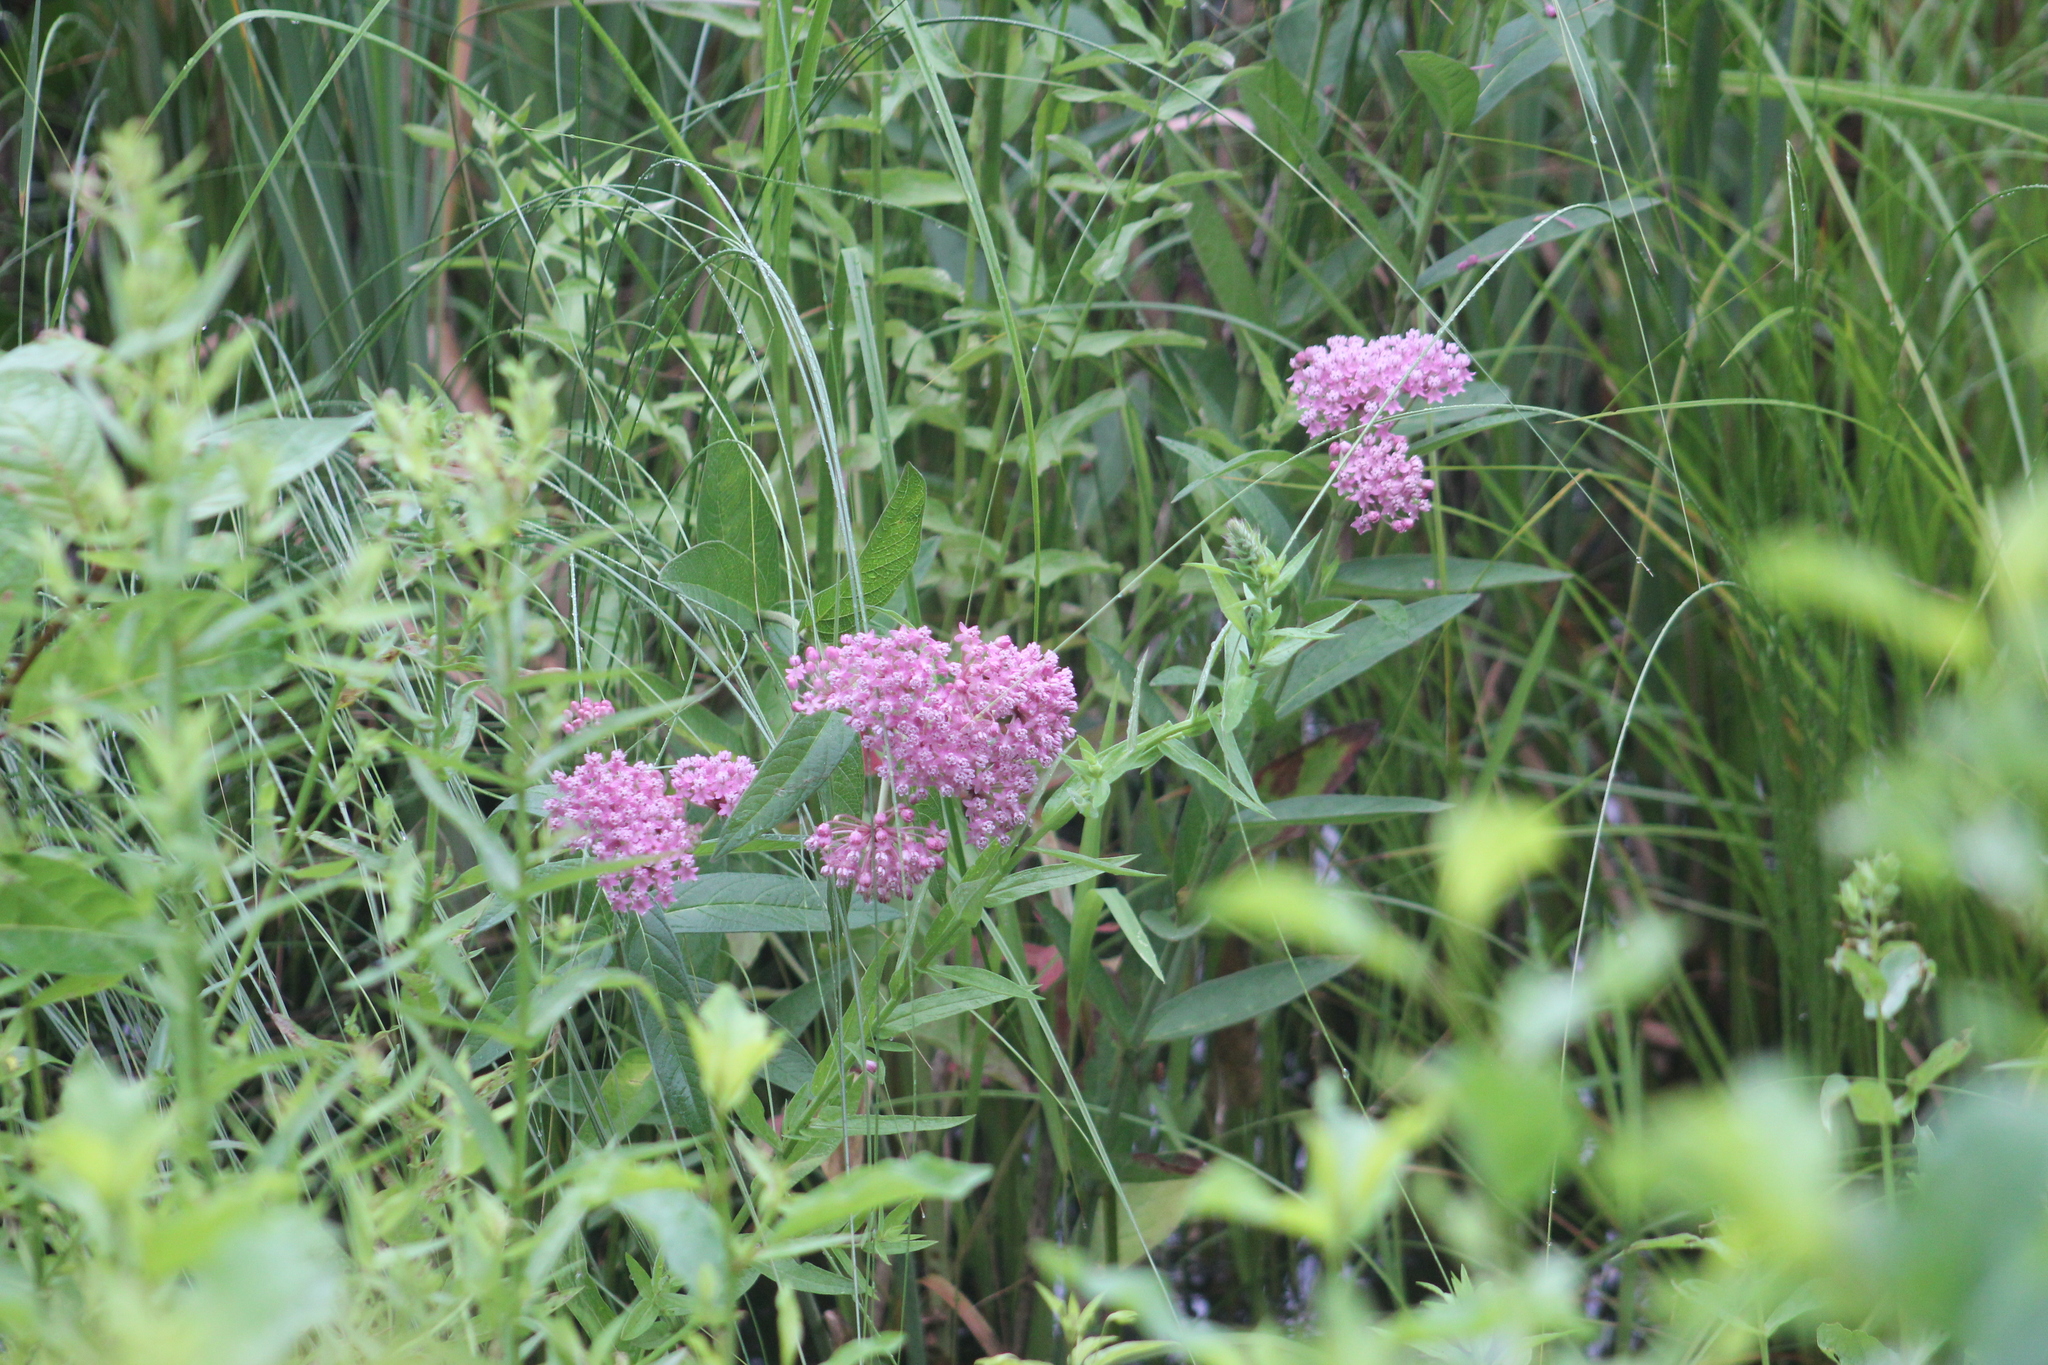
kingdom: Plantae
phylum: Tracheophyta
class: Magnoliopsida
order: Gentianales
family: Apocynaceae
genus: Asclepias
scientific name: Asclepias incarnata
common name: Swamp milkweed
